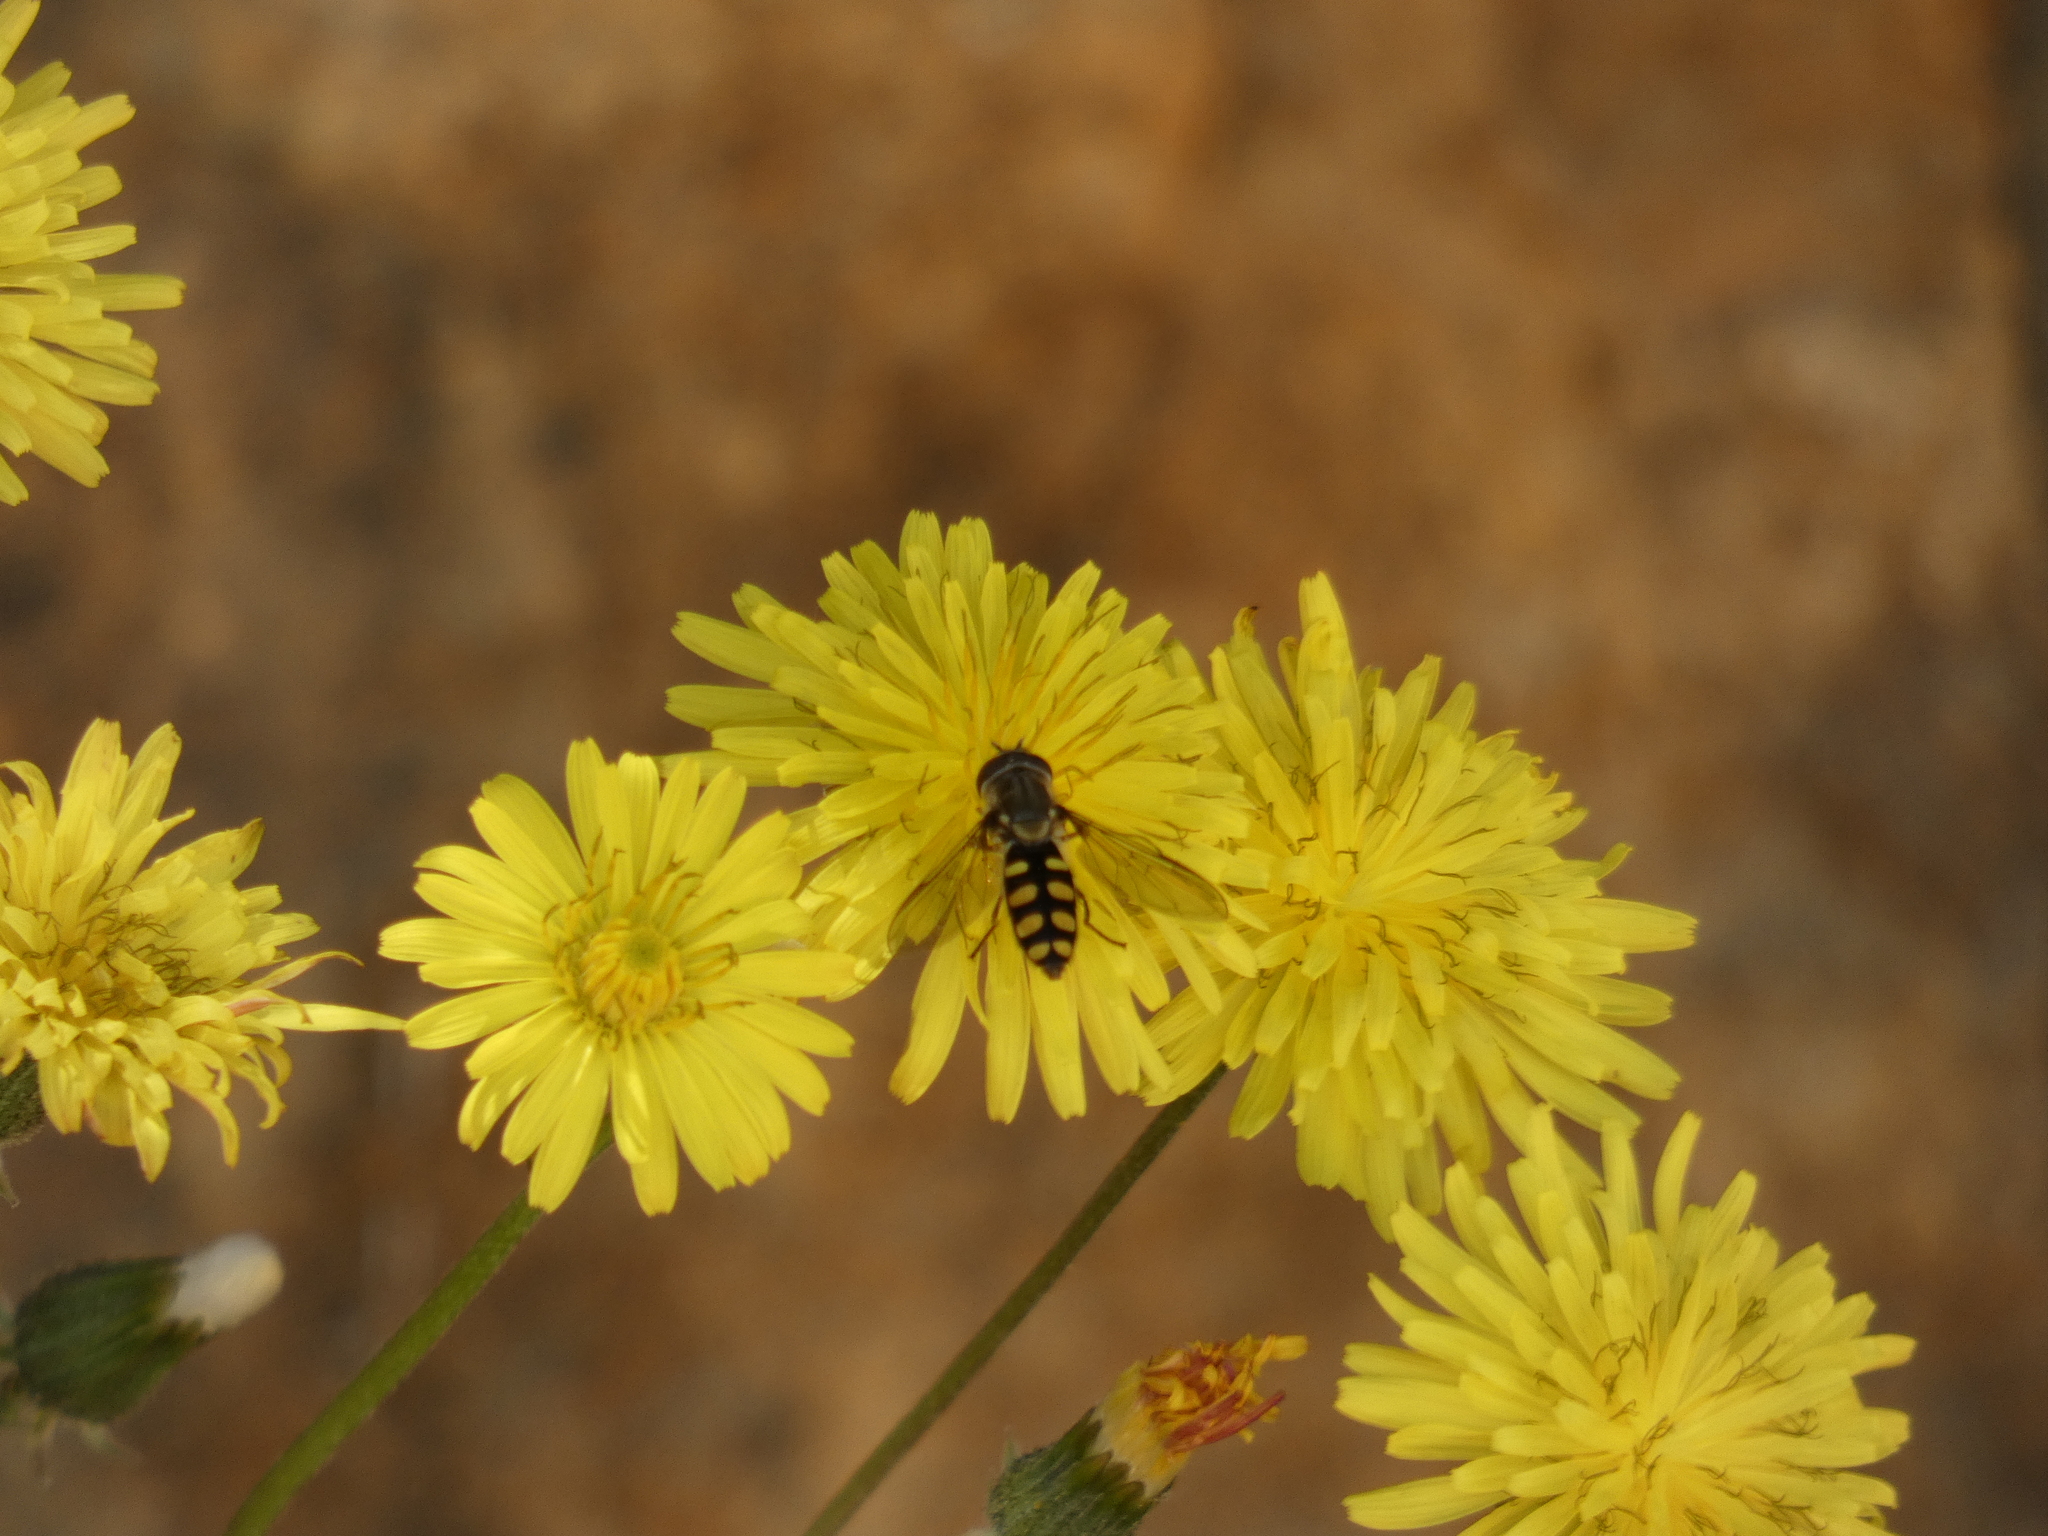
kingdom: Animalia
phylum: Arthropoda
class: Insecta
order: Diptera
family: Syrphidae
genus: Fazia
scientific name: Fazia decemmaculata
